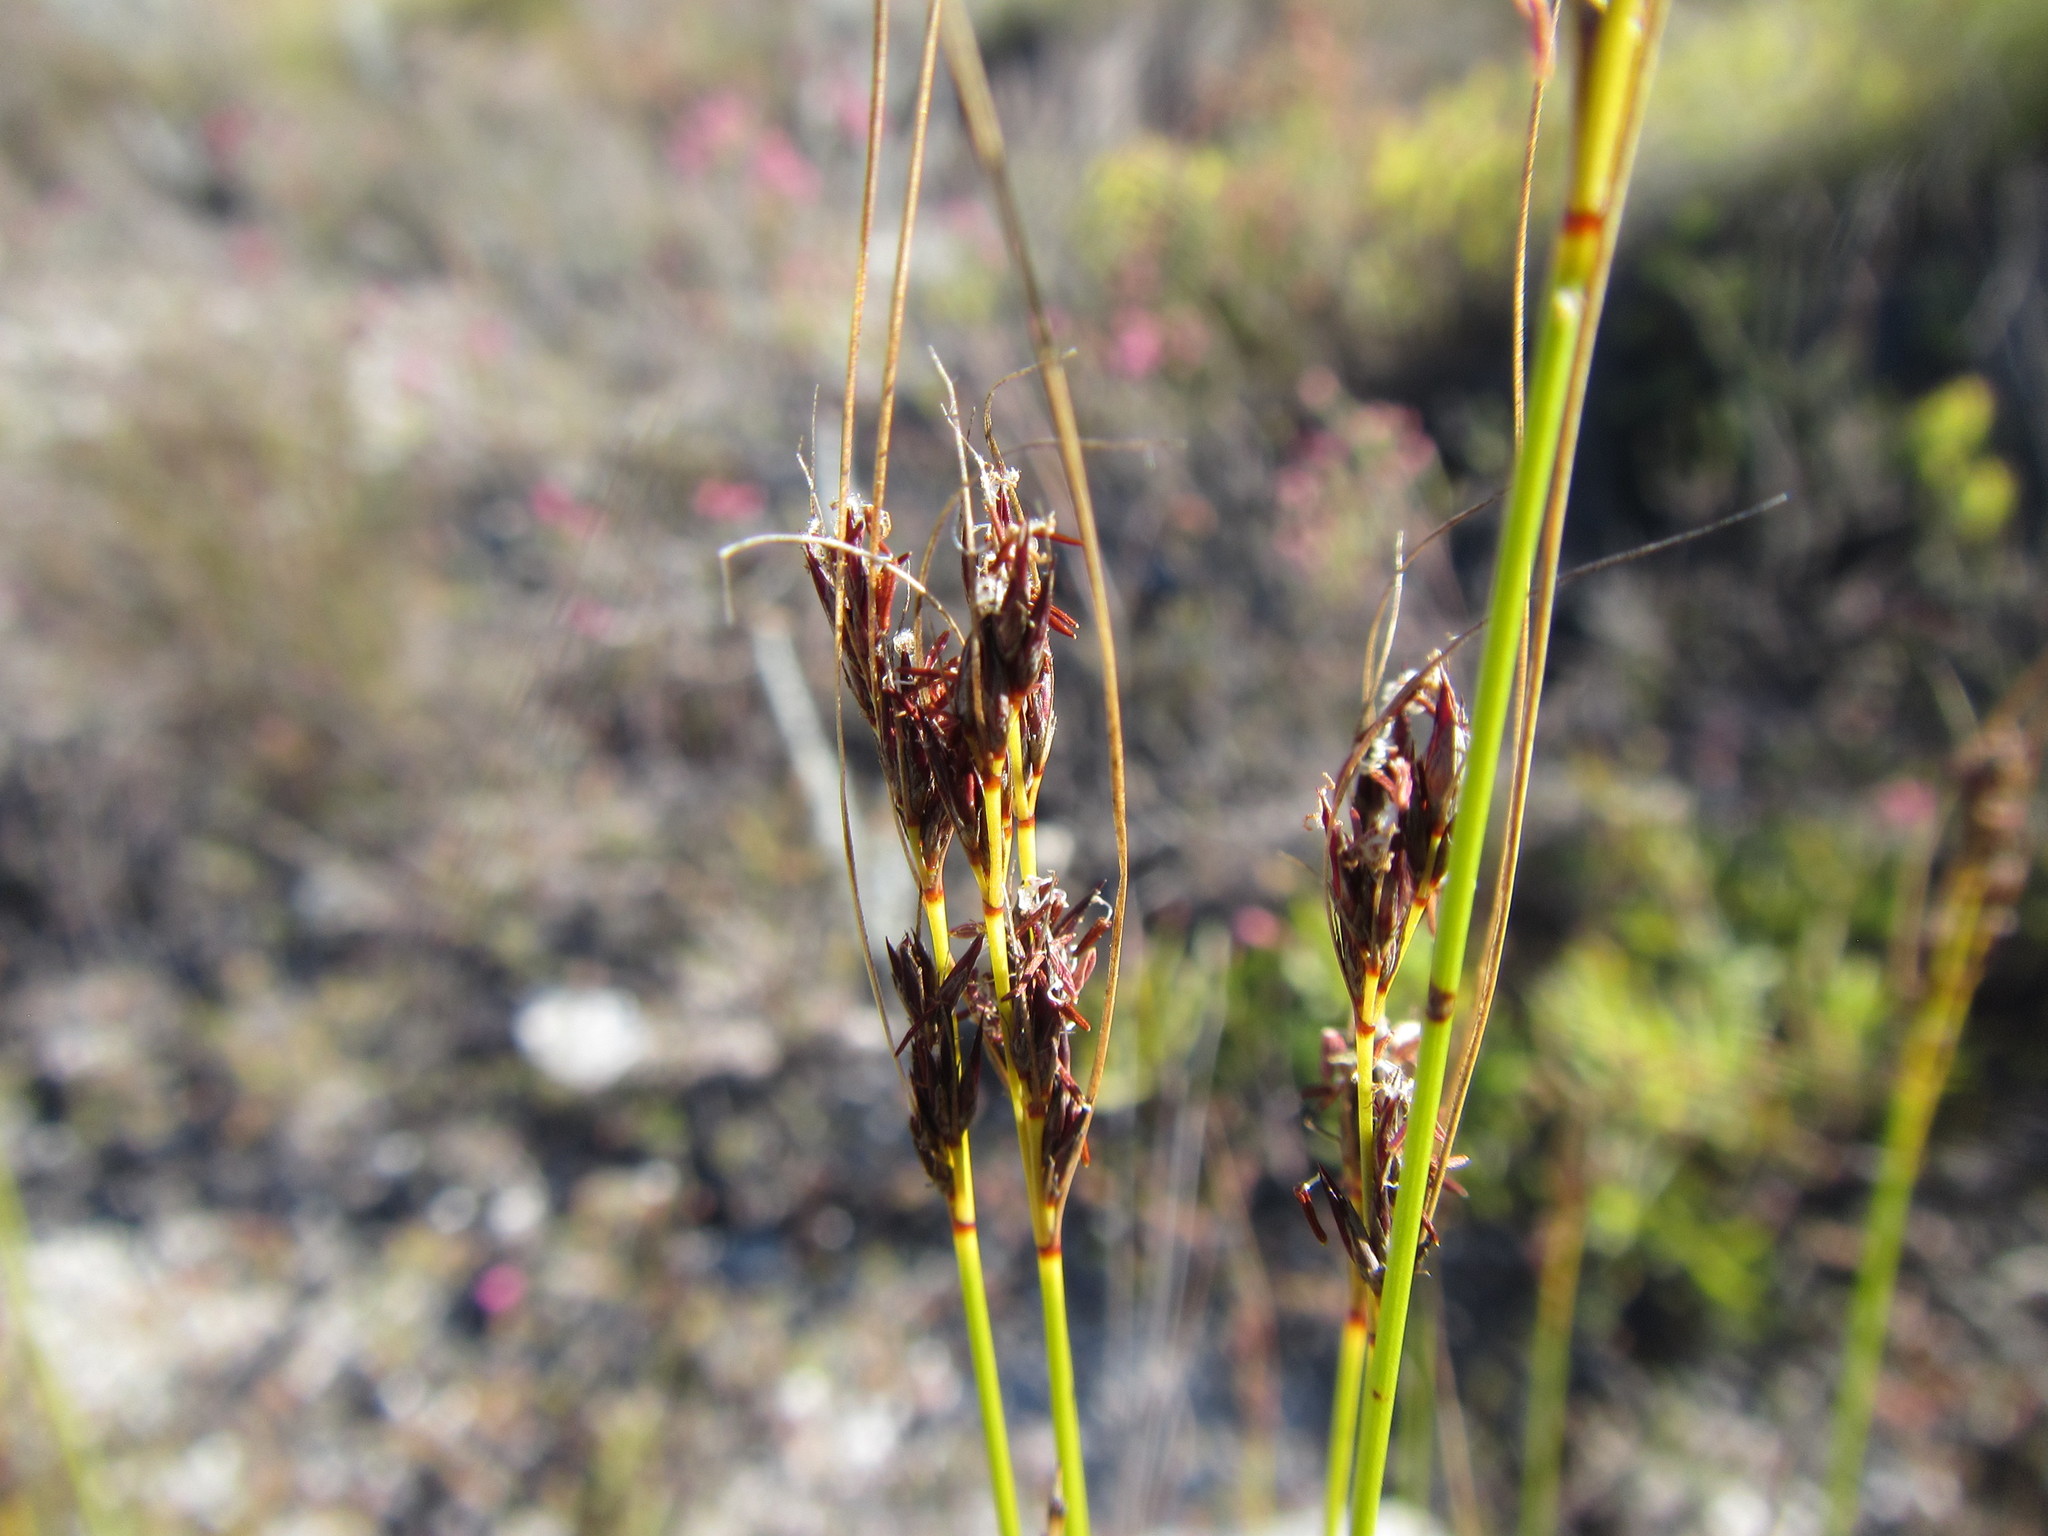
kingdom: Plantae
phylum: Tracheophyta
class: Liliopsida
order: Poales
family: Cyperaceae
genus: Schoenus
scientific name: Schoenus cuspidatus
